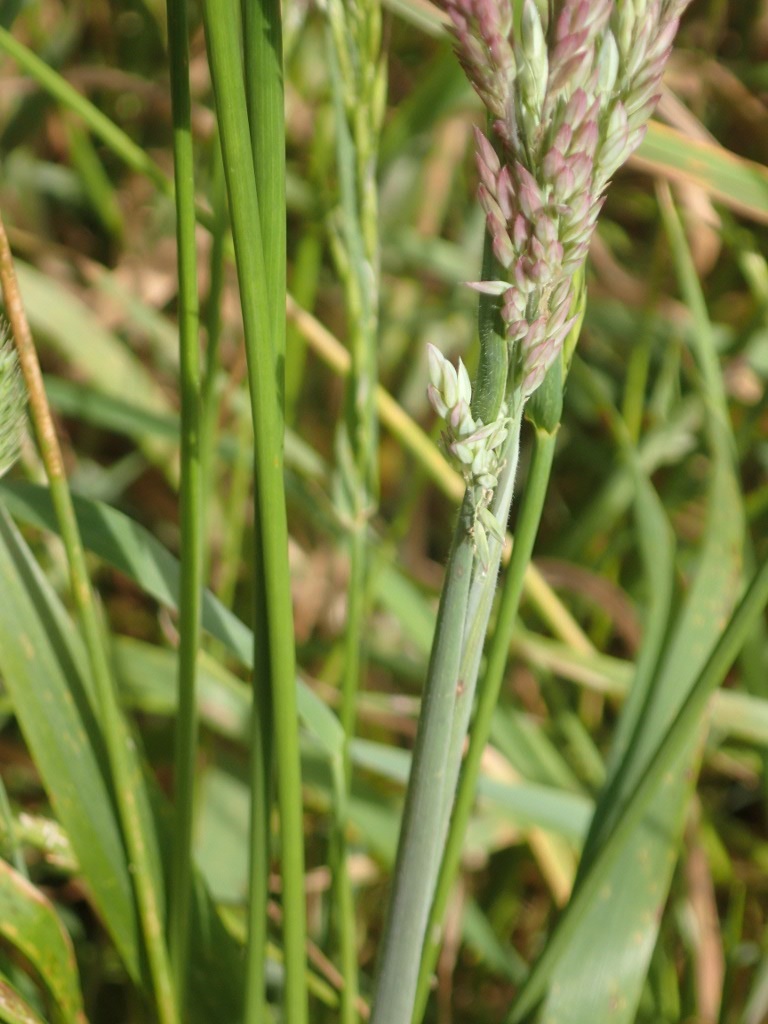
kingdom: Plantae
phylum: Tracheophyta
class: Liliopsida
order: Poales
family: Poaceae
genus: Holcus
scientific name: Holcus lanatus
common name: Yorkshire-fog
